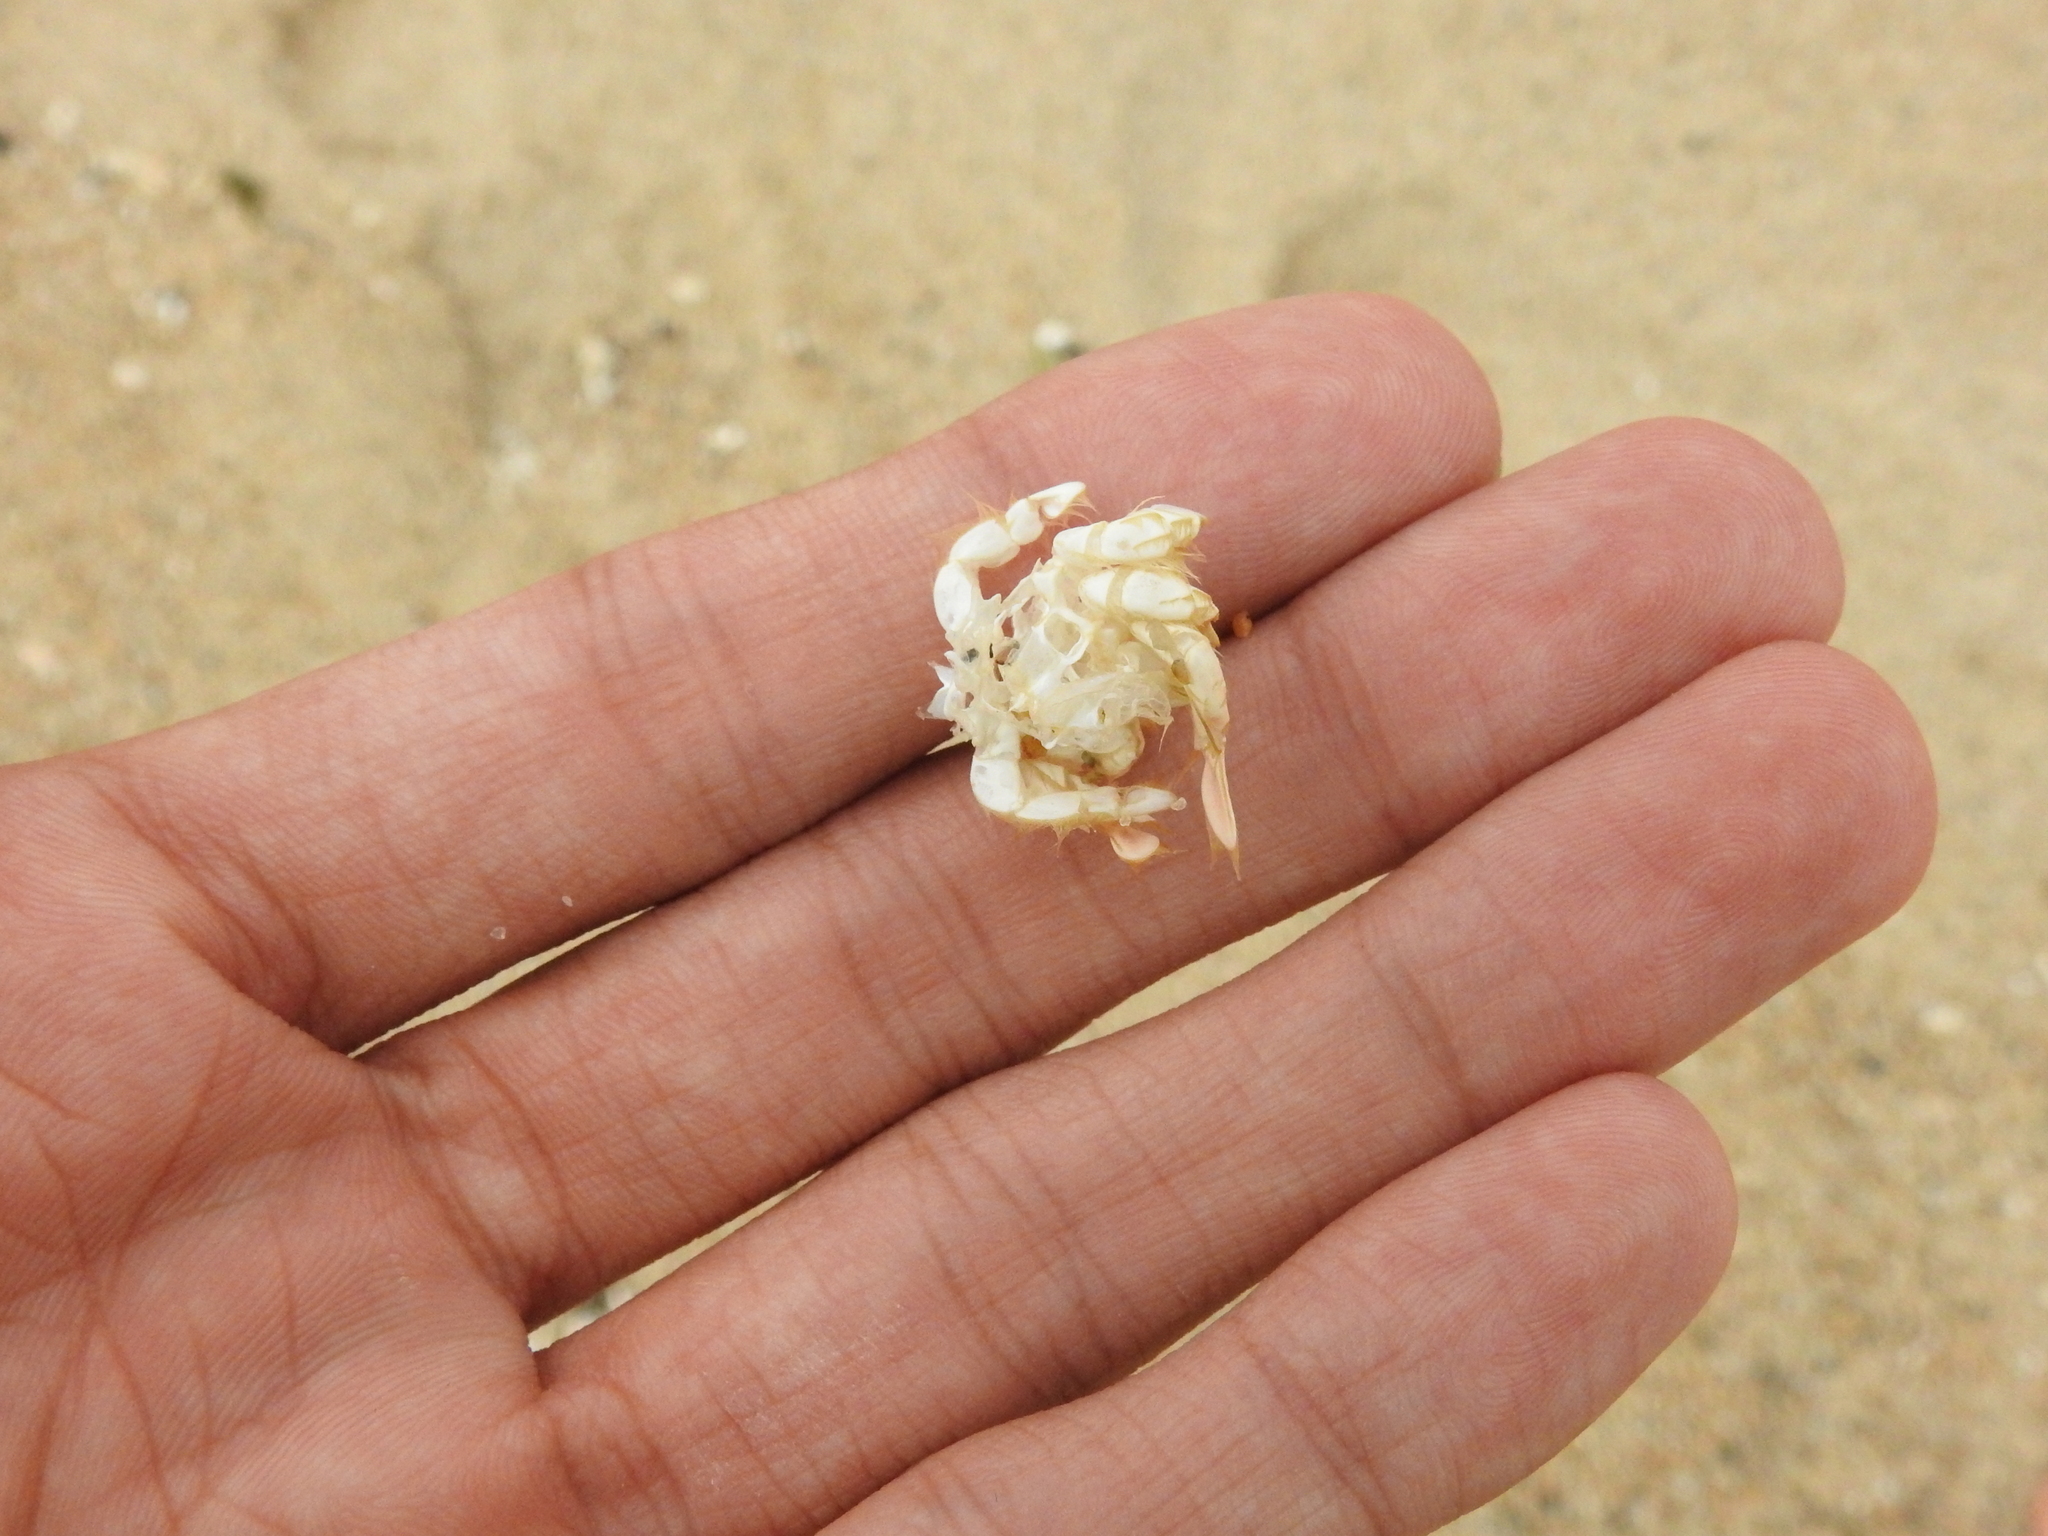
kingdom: Animalia
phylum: Arthropoda
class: Malacostraca
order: Decapoda
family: Hippidae
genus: Emerita
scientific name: Emerita analoga
